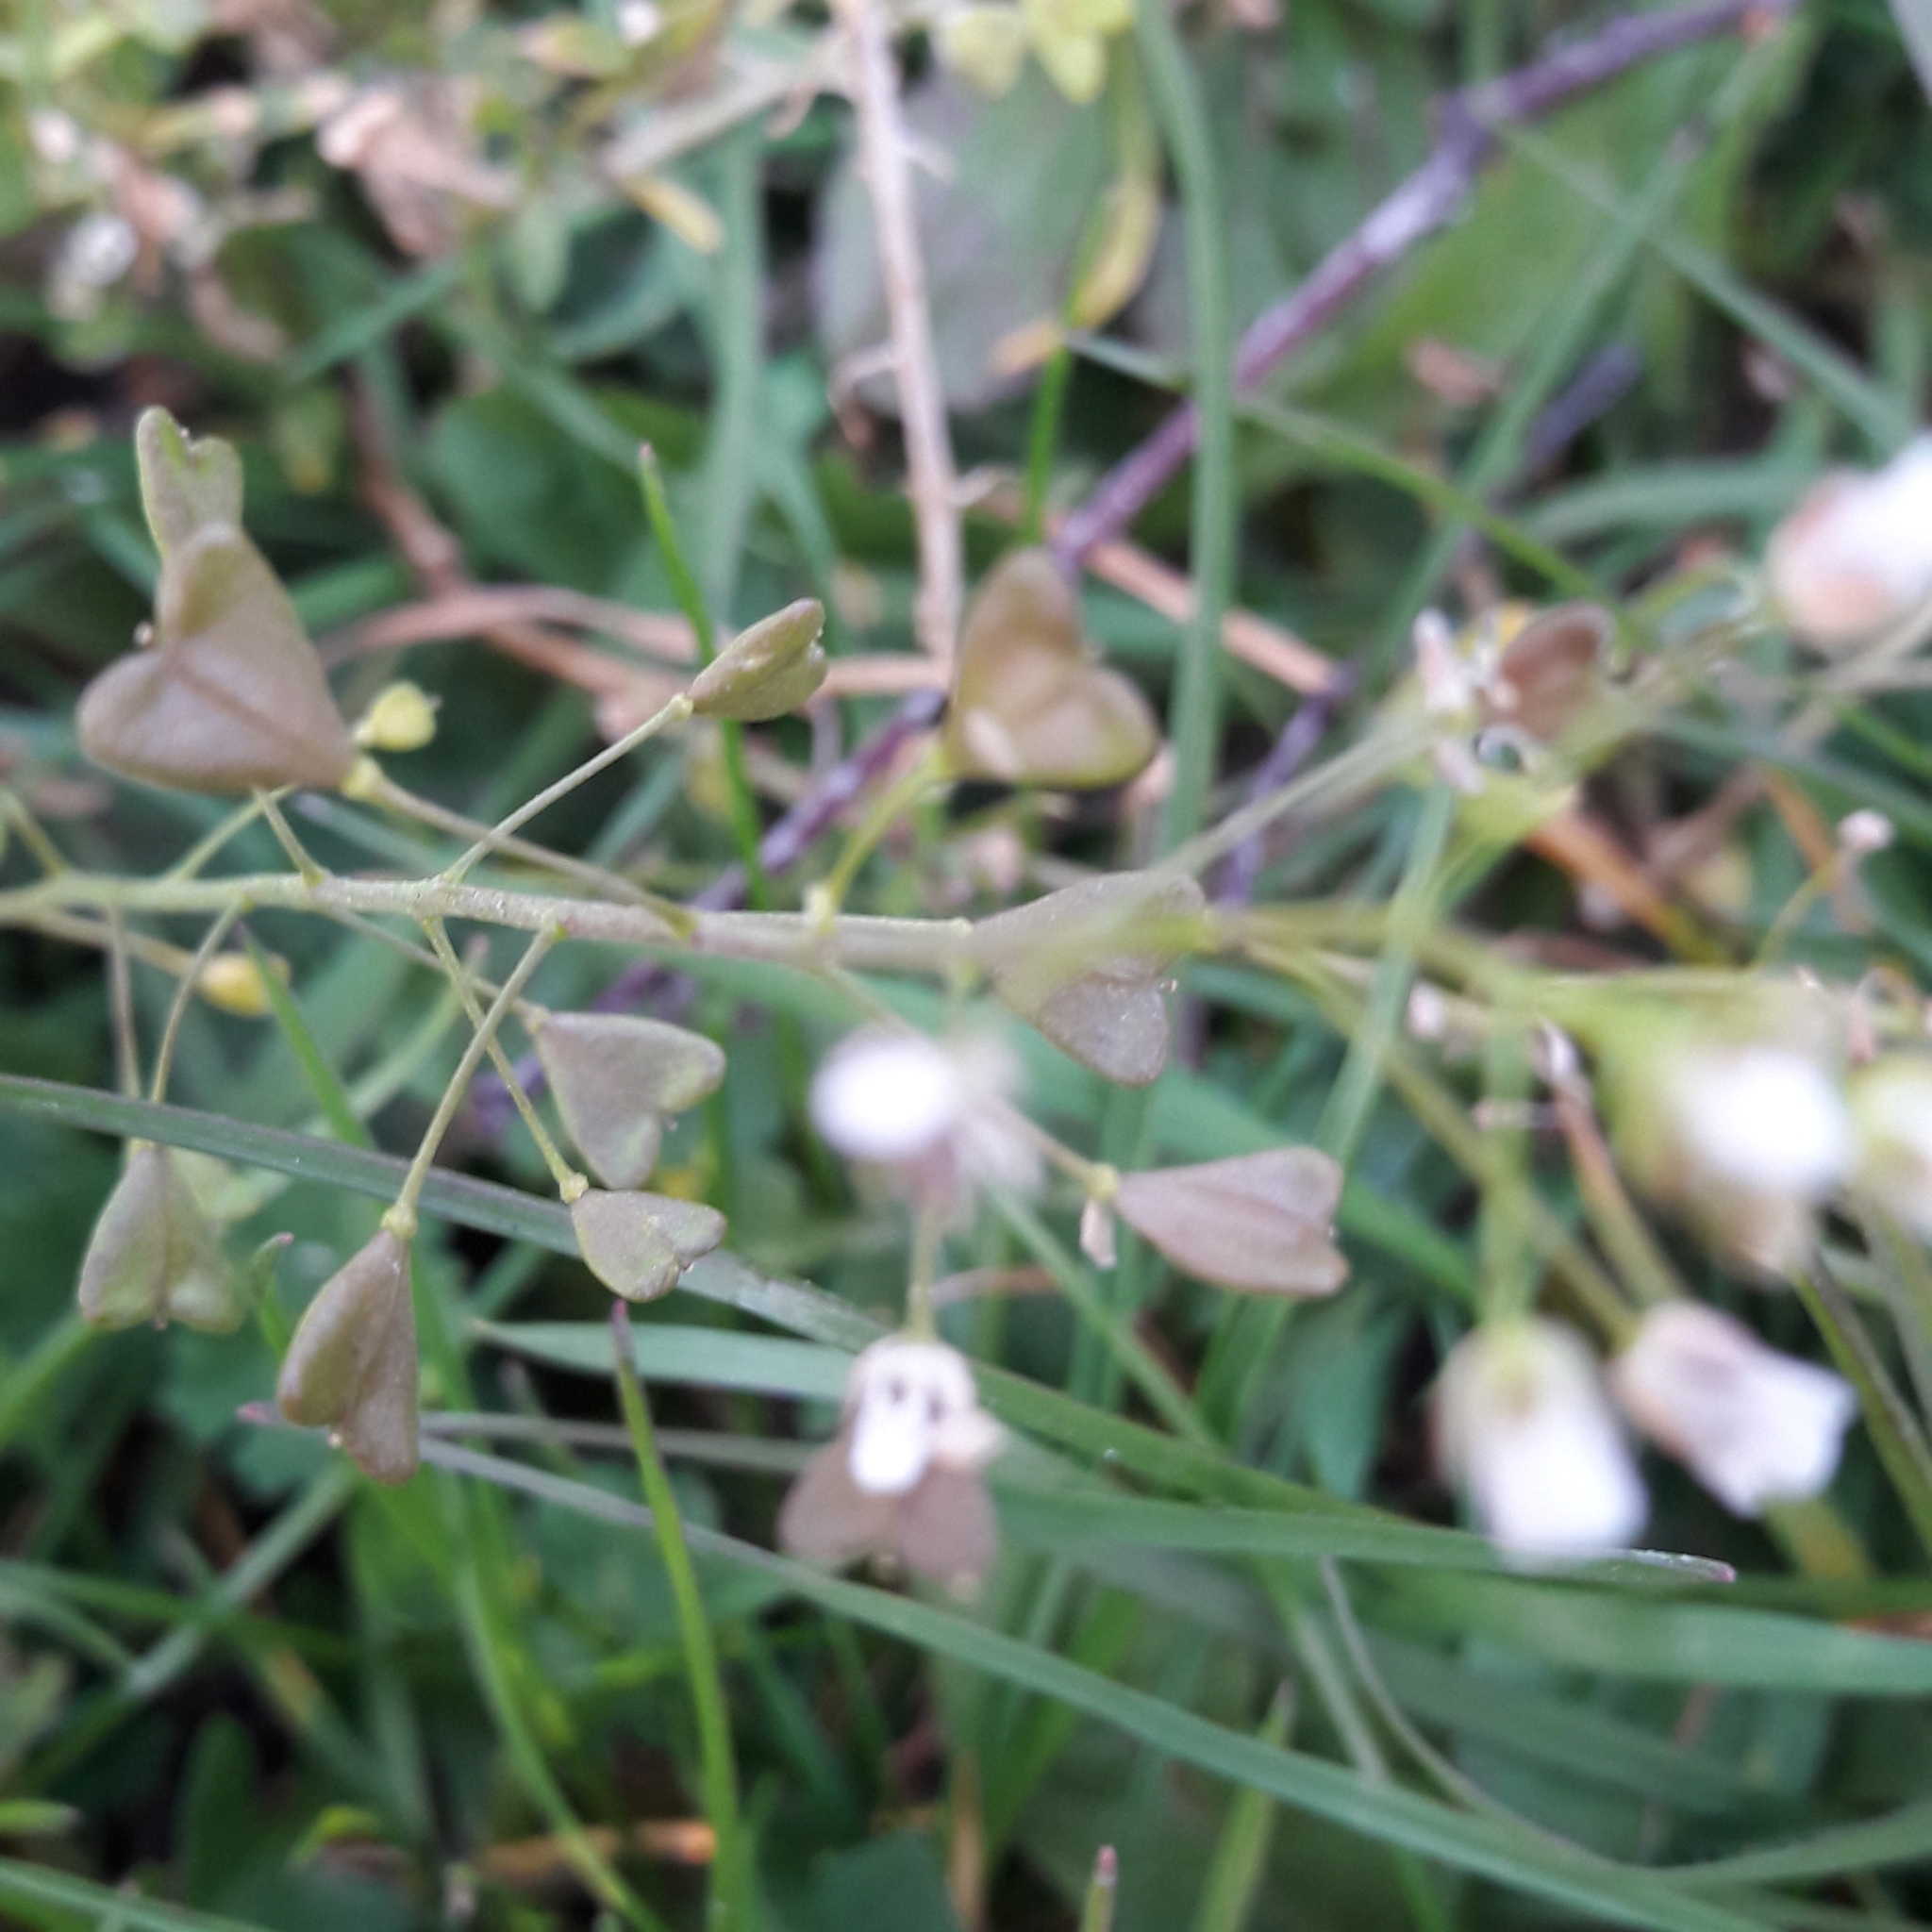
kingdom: Plantae
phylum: Tracheophyta
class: Magnoliopsida
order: Brassicales
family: Brassicaceae
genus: Capsella
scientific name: Capsella bursa-pastoris
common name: Shepherd's purse
